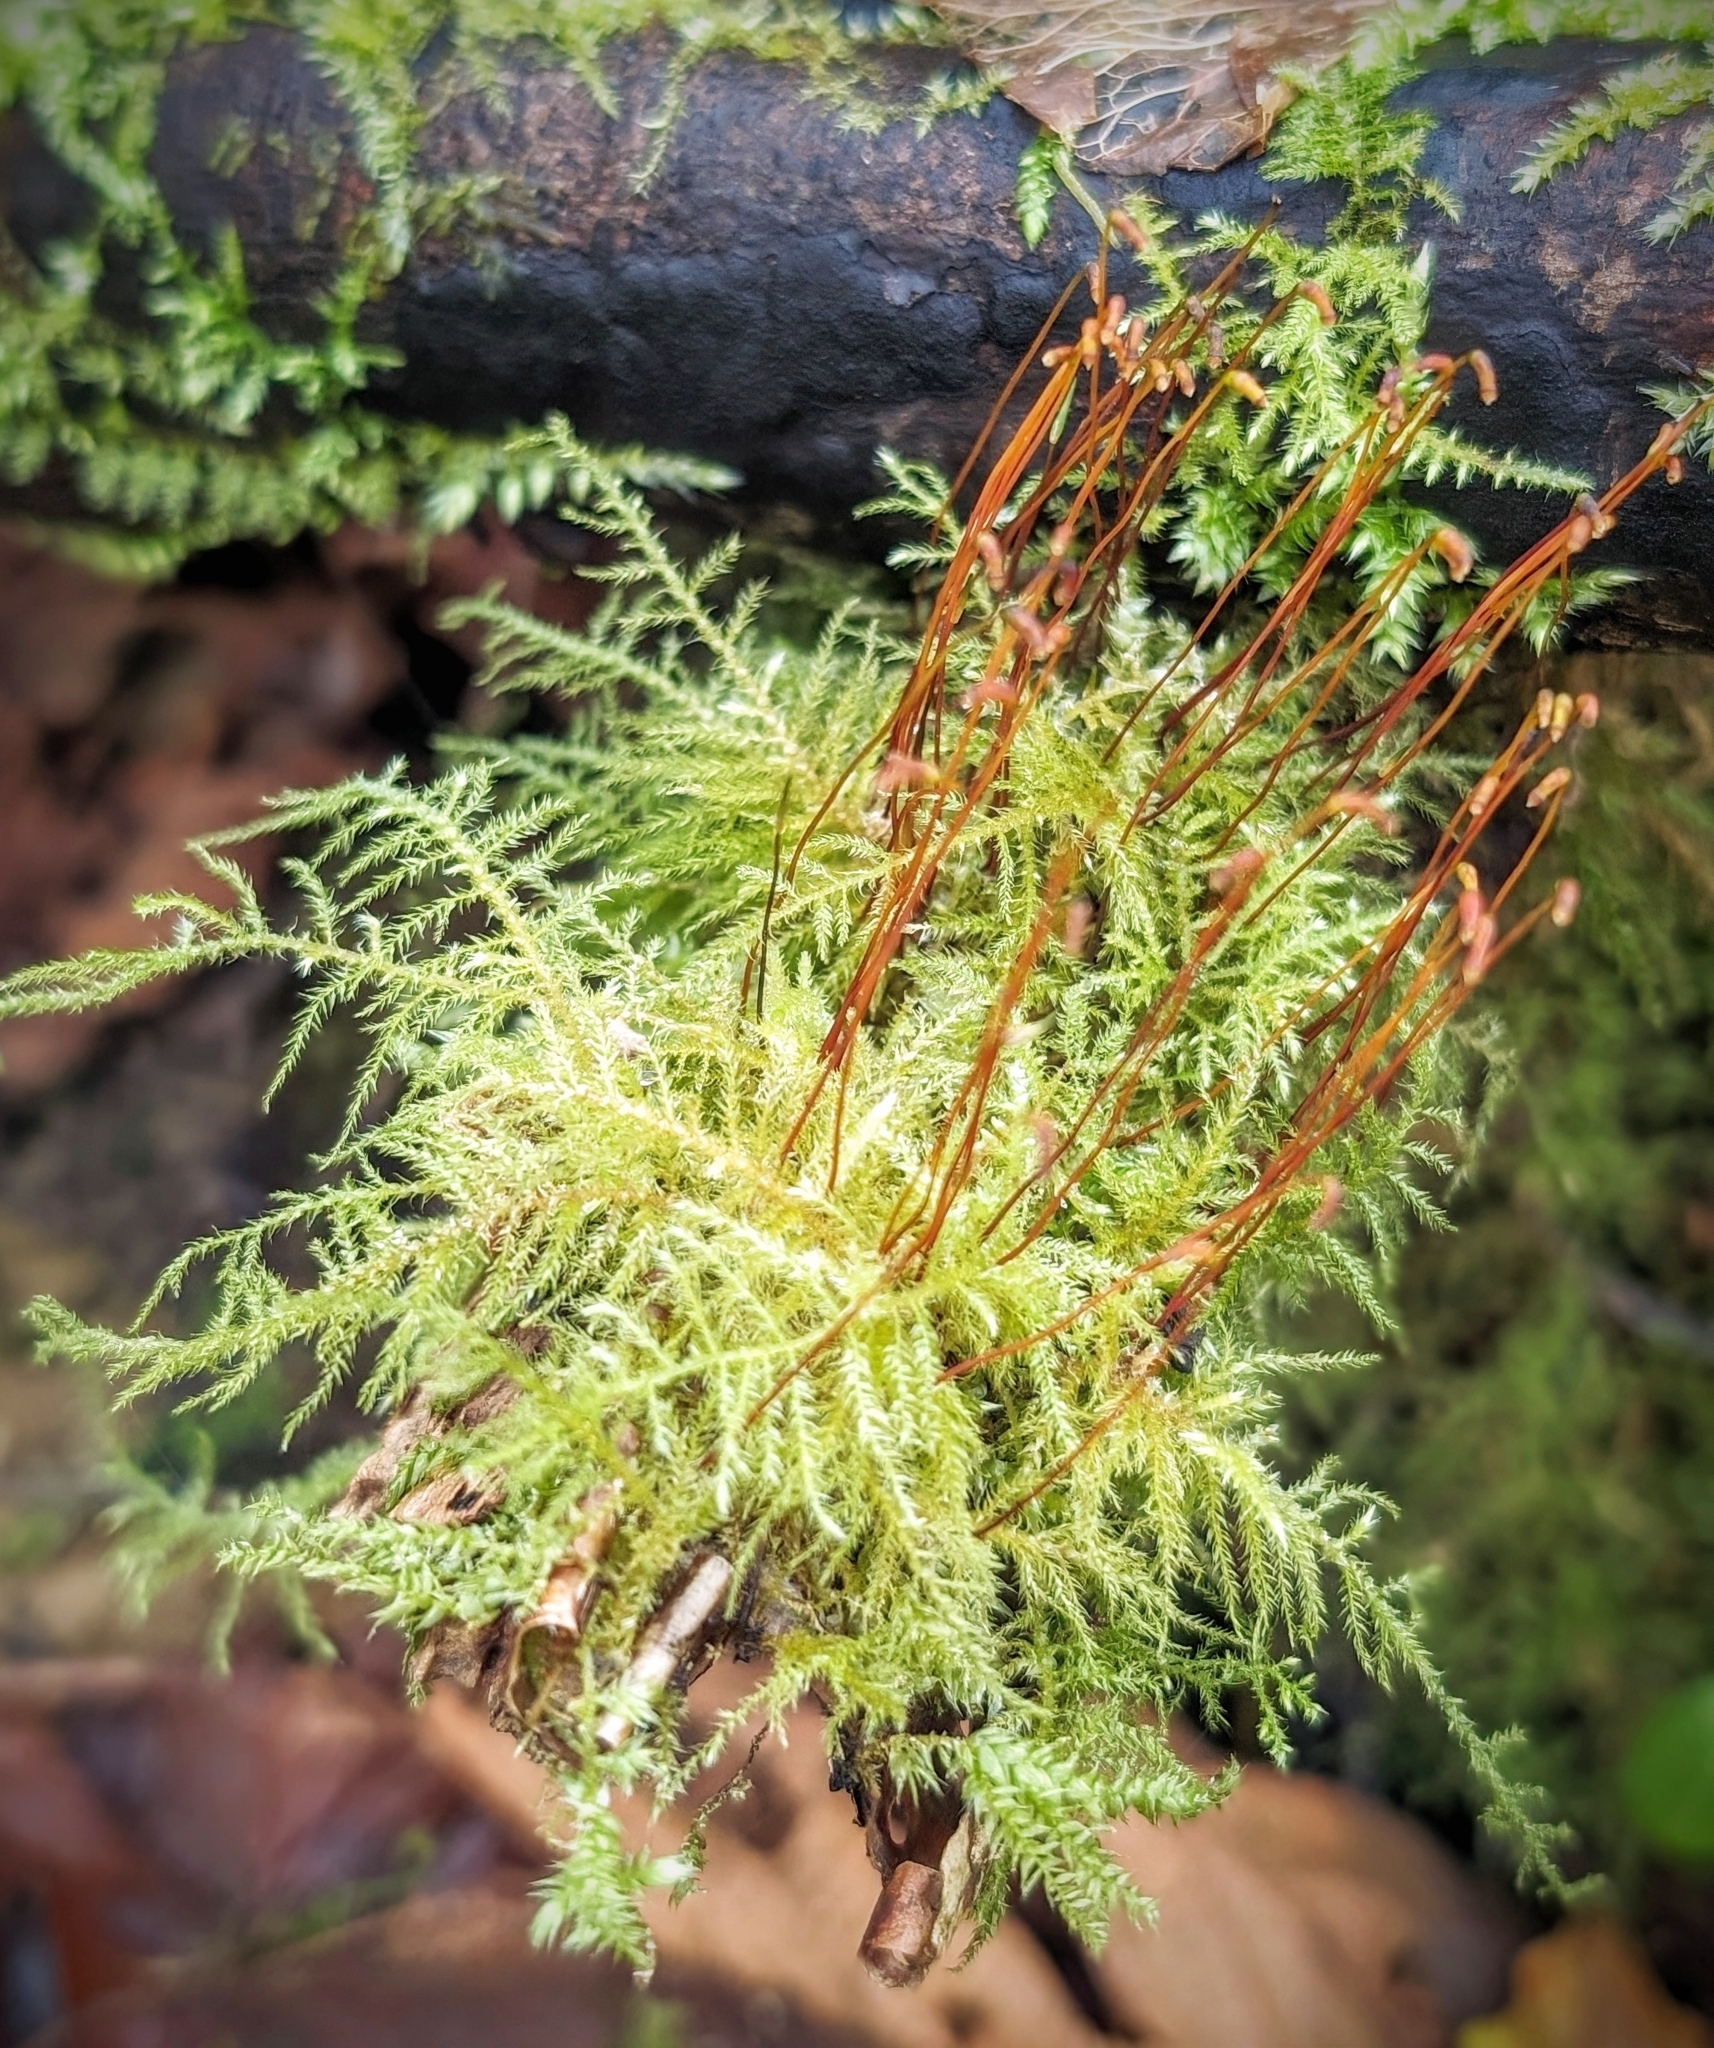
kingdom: Plantae
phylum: Bryophyta
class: Bryopsida
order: Hypnales
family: Brachytheciaceae
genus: Kindbergia
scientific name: Kindbergia praelonga
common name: Slender beaked moss
